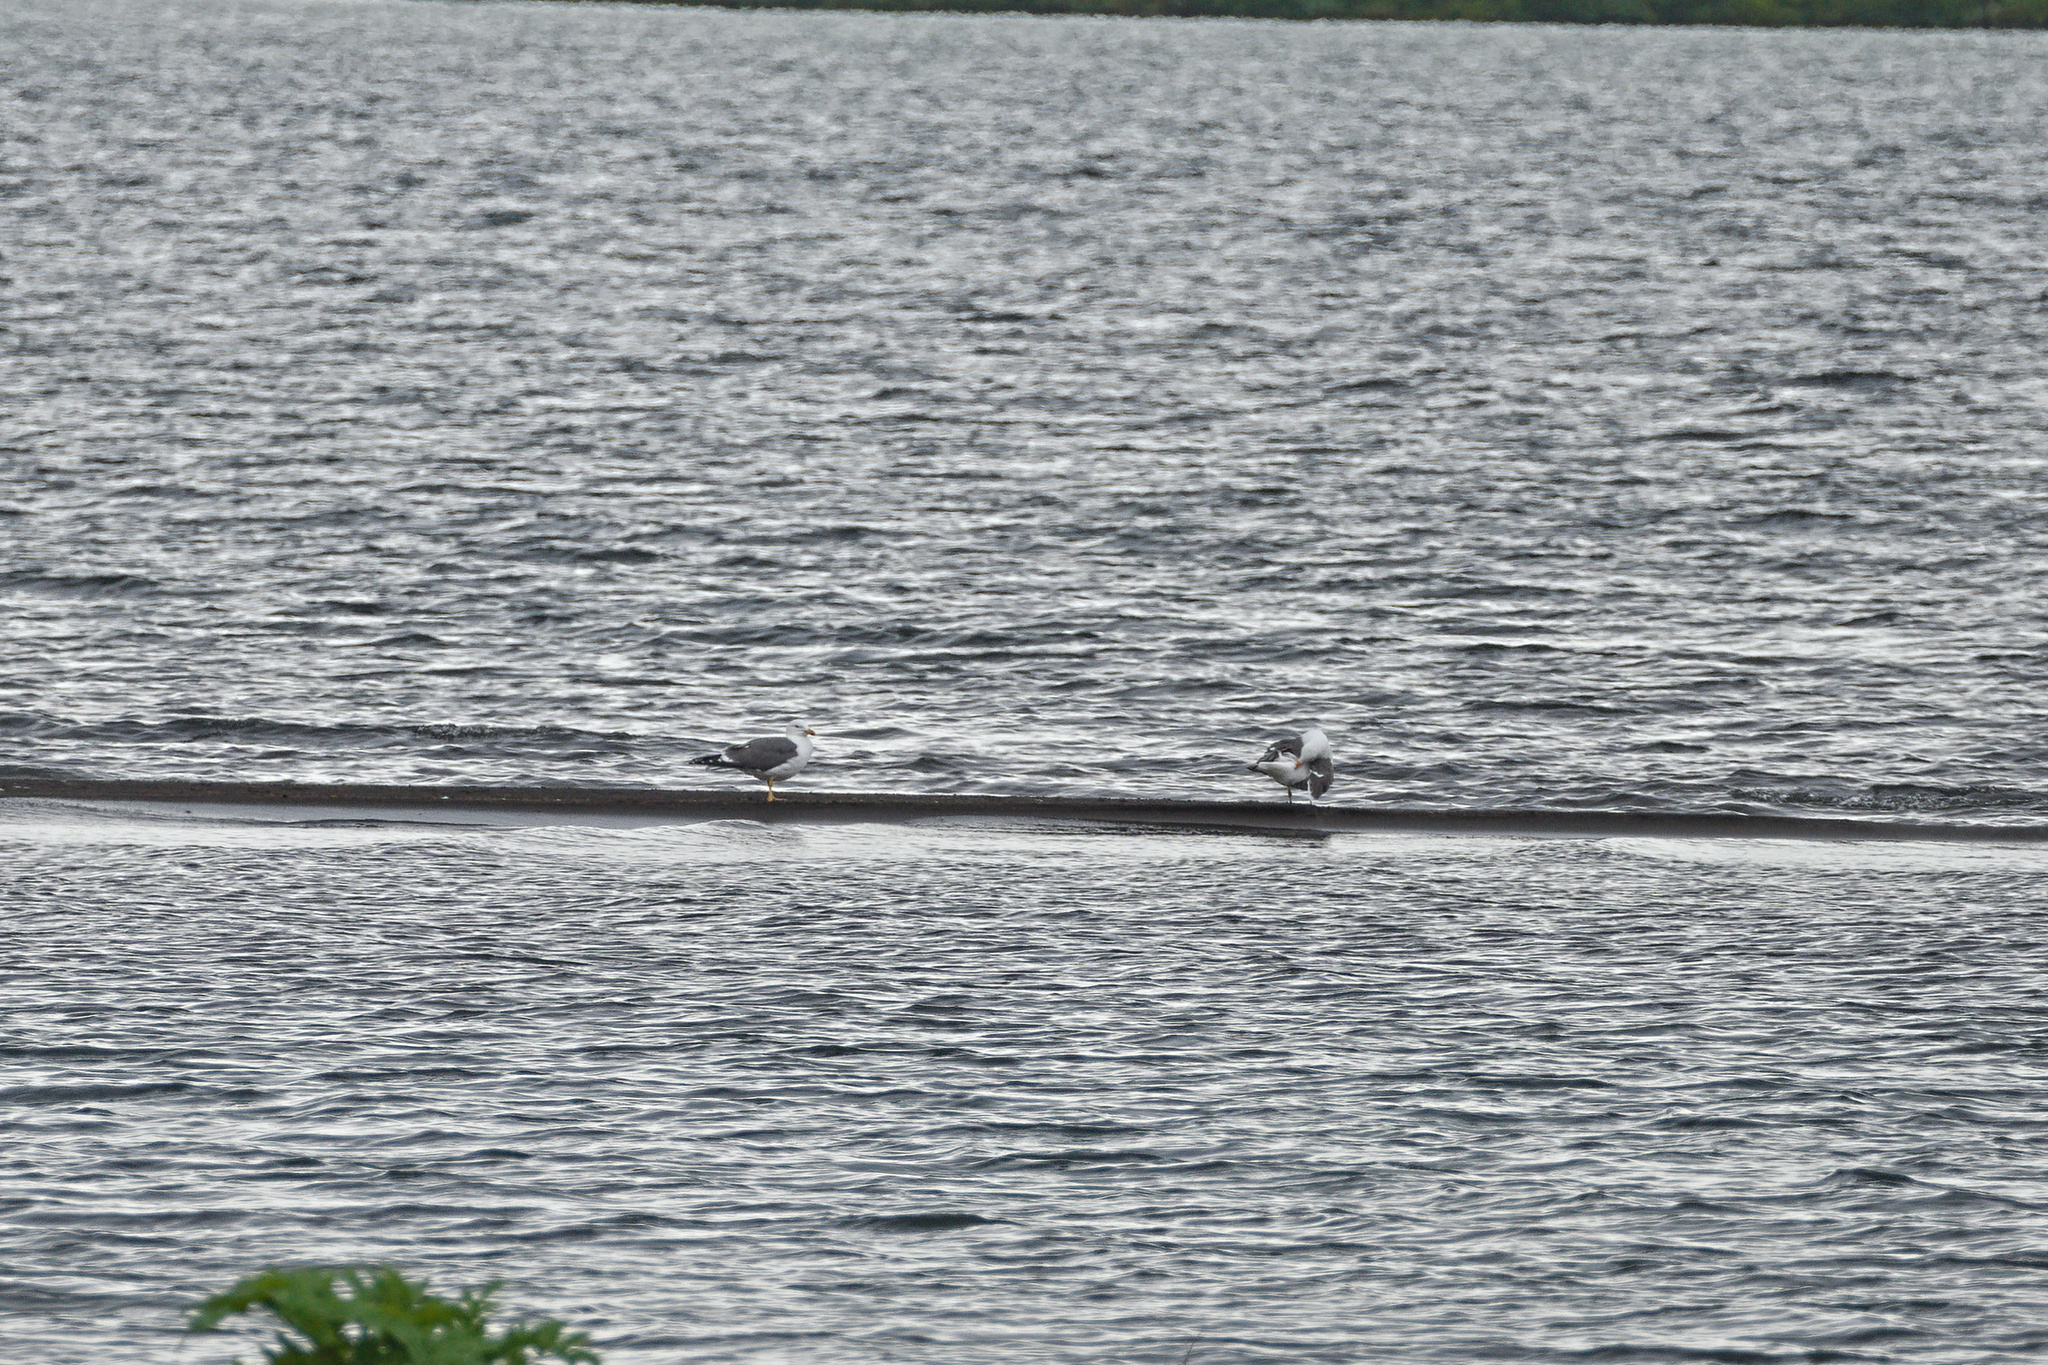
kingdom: Animalia
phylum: Chordata
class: Aves
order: Charadriiformes
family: Laridae
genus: Larus
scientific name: Larus fuscus
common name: Lesser black-backed gull
